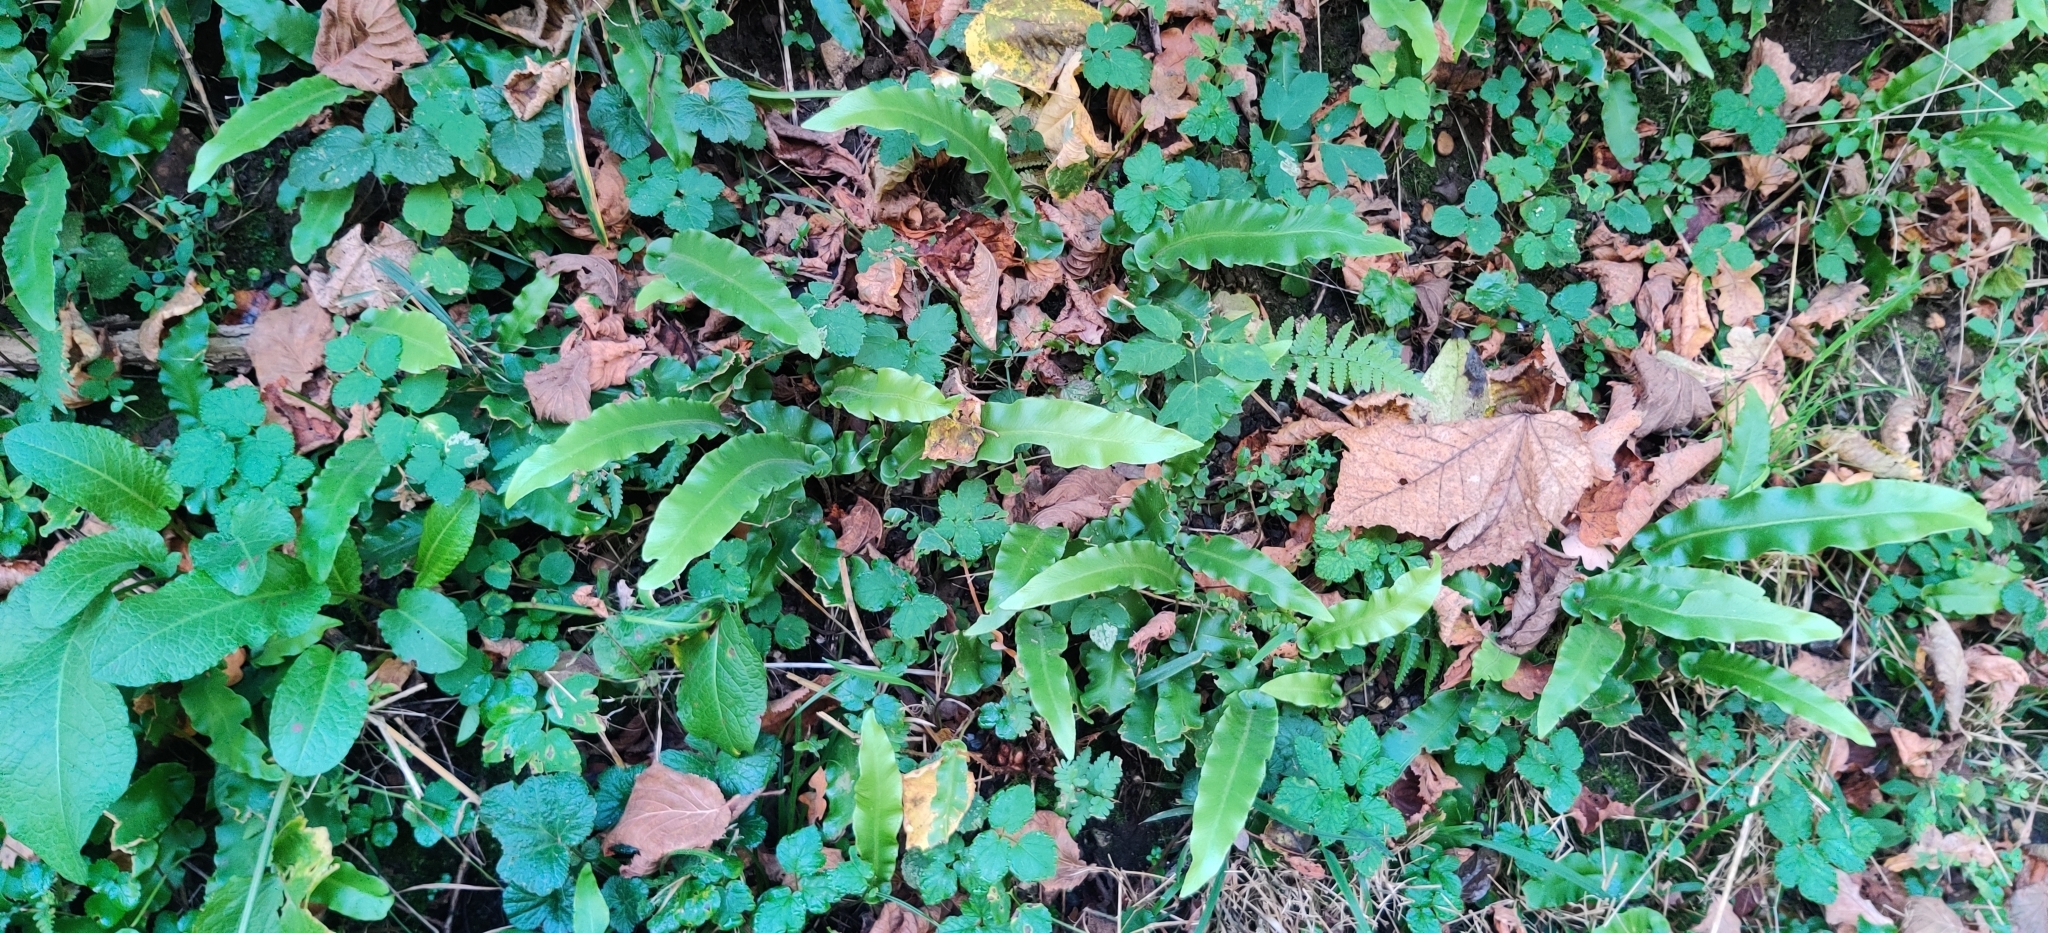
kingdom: Plantae
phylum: Tracheophyta
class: Polypodiopsida
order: Polypodiales
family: Aspleniaceae
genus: Asplenium
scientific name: Asplenium scolopendrium
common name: Hart's-tongue fern
